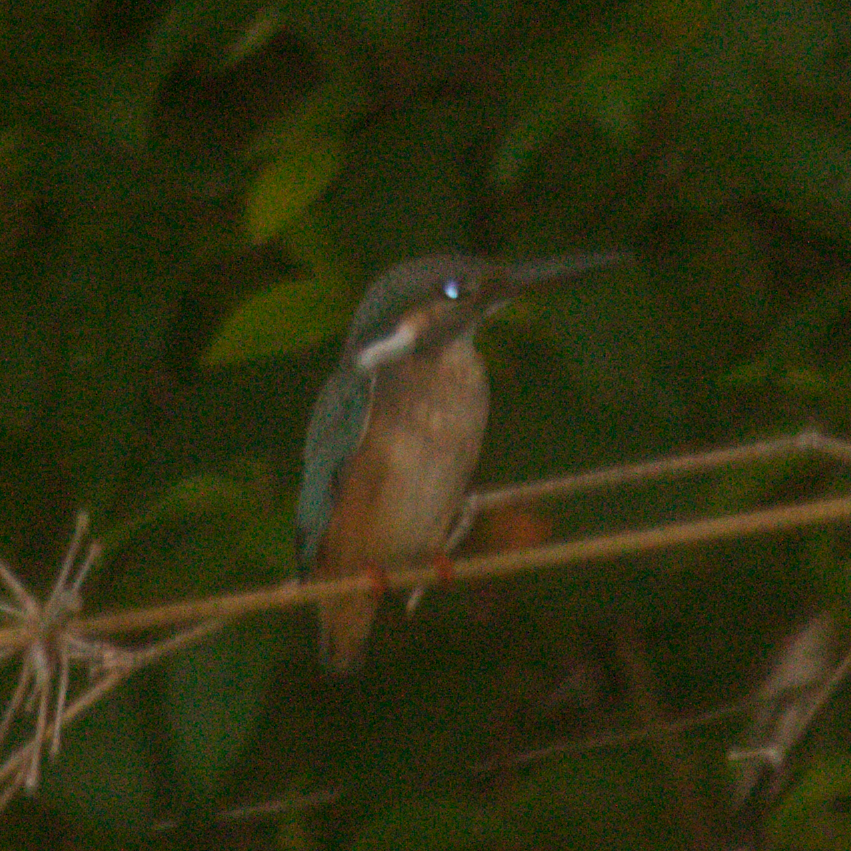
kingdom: Animalia
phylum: Chordata
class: Aves
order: Coraciiformes
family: Alcedinidae
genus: Alcedo
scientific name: Alcedo atthis
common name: Common kingfisher
